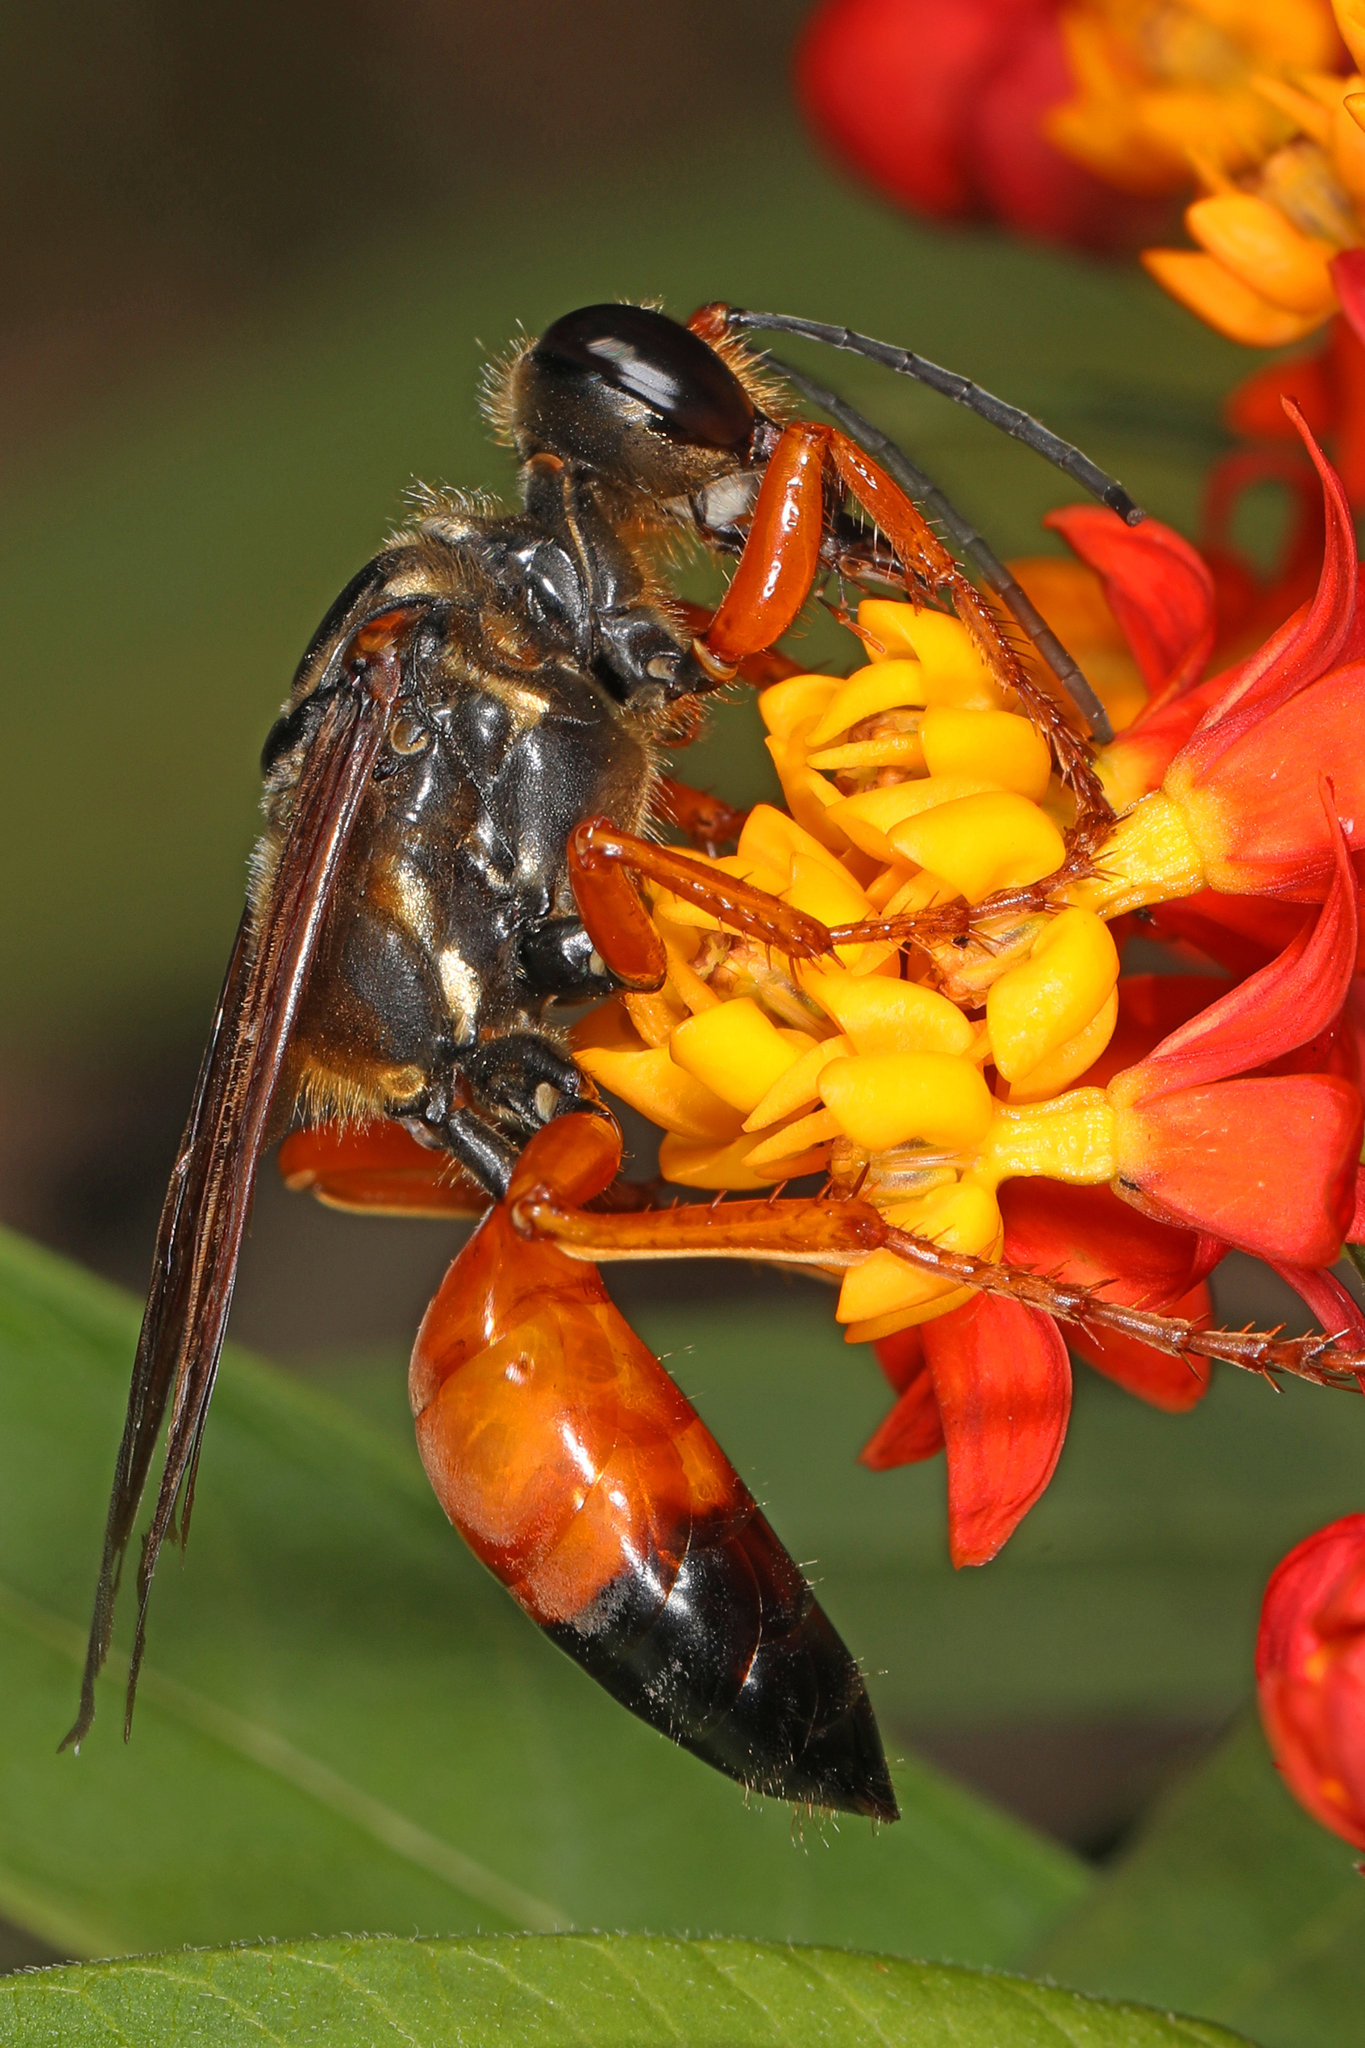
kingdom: Animalia
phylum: Arthropoda
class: Insecta
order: Hymenoptera
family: Sphecidae
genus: Sphex
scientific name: Sphex ichneumoneus
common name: Great golden digger wasp
